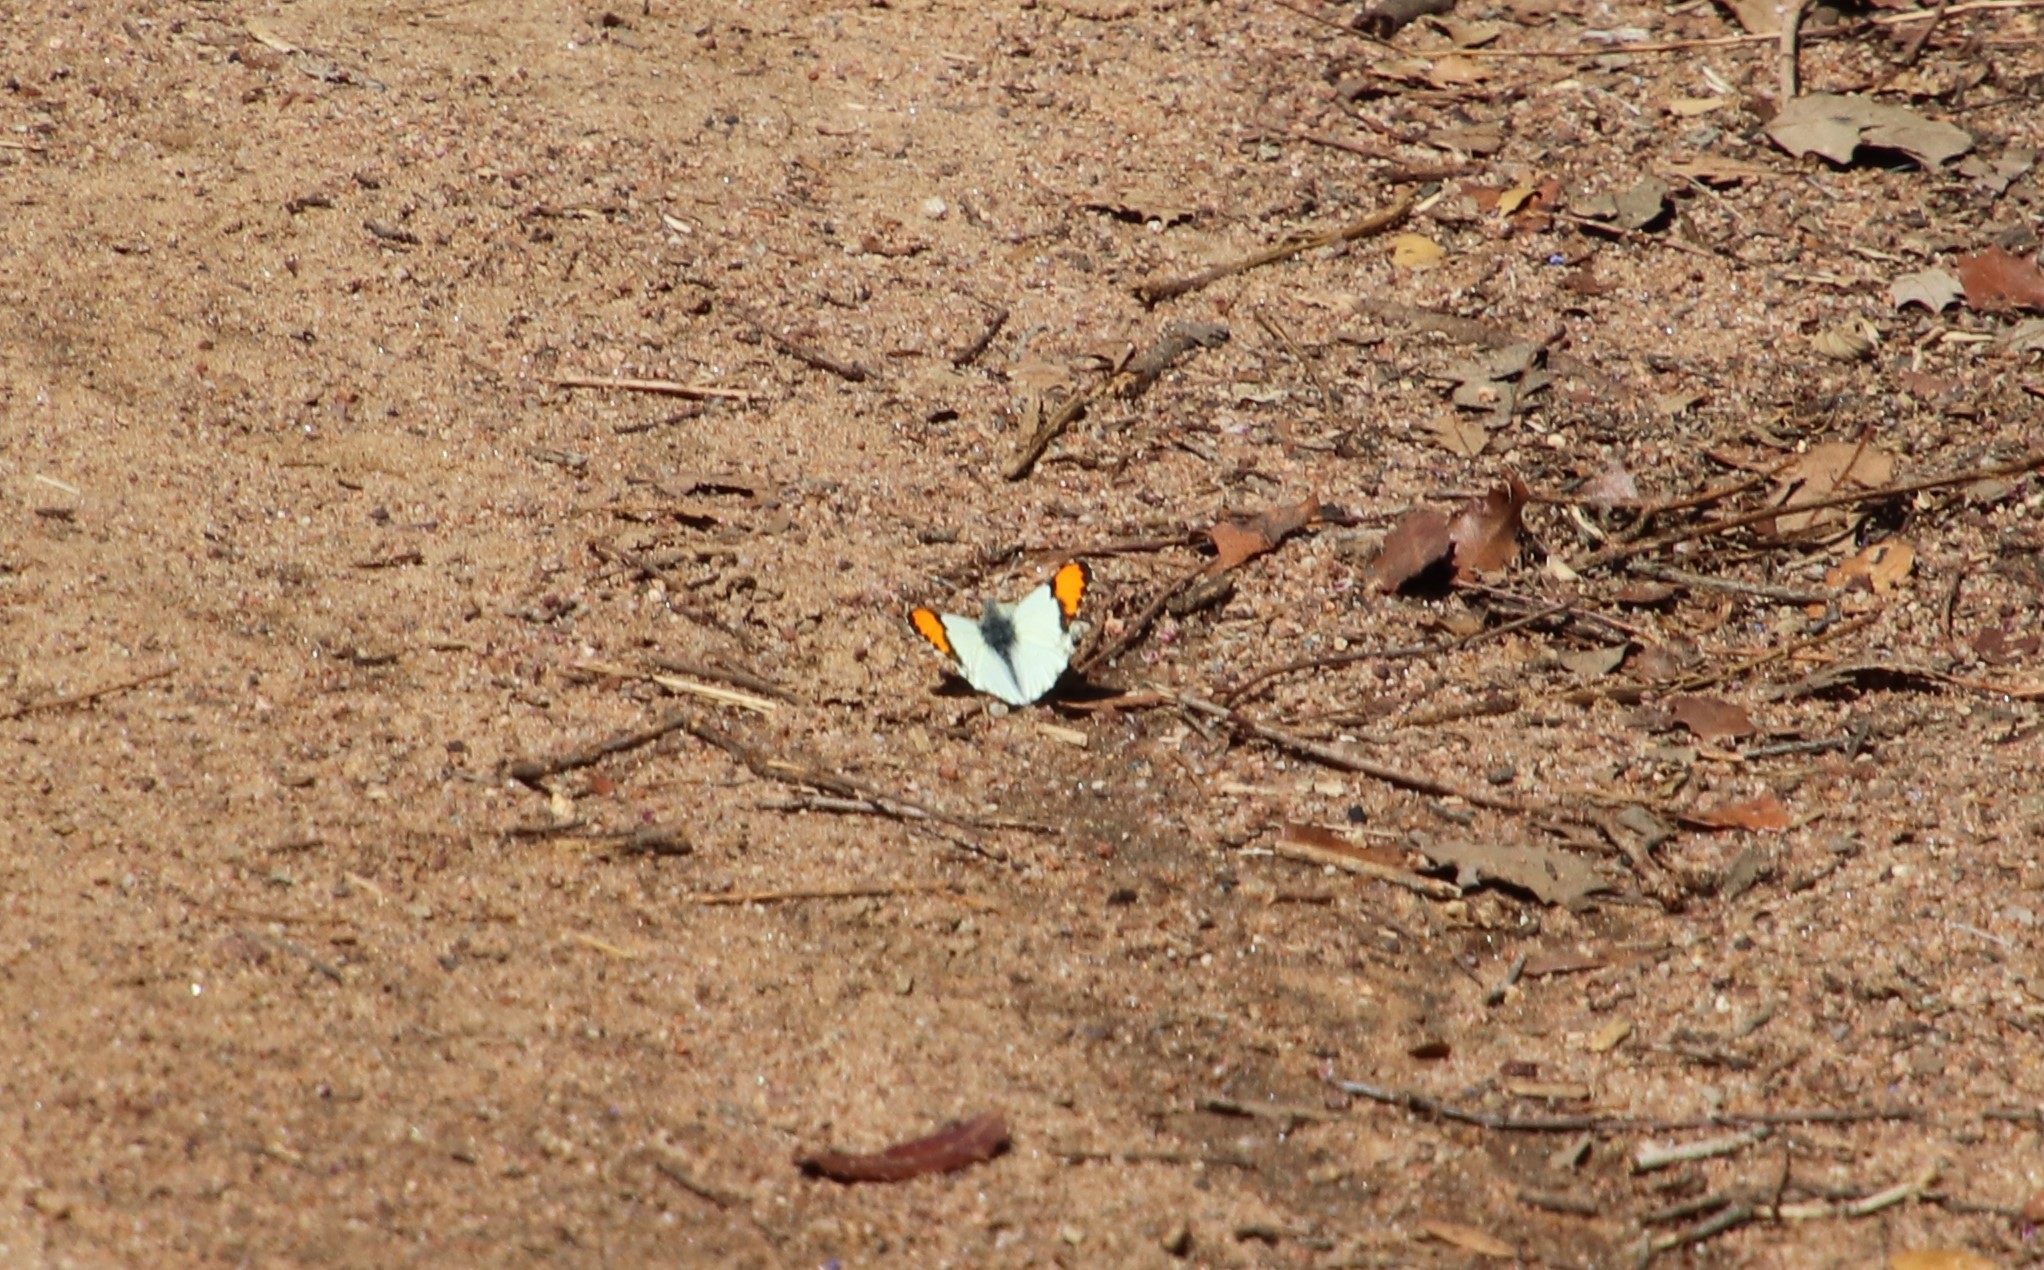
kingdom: Animalia
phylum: Arthropoda
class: Insecta
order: Lepidoptera
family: Pieridae
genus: Anthocharis
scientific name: Anthocharis sara
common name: Sara's orangetip
